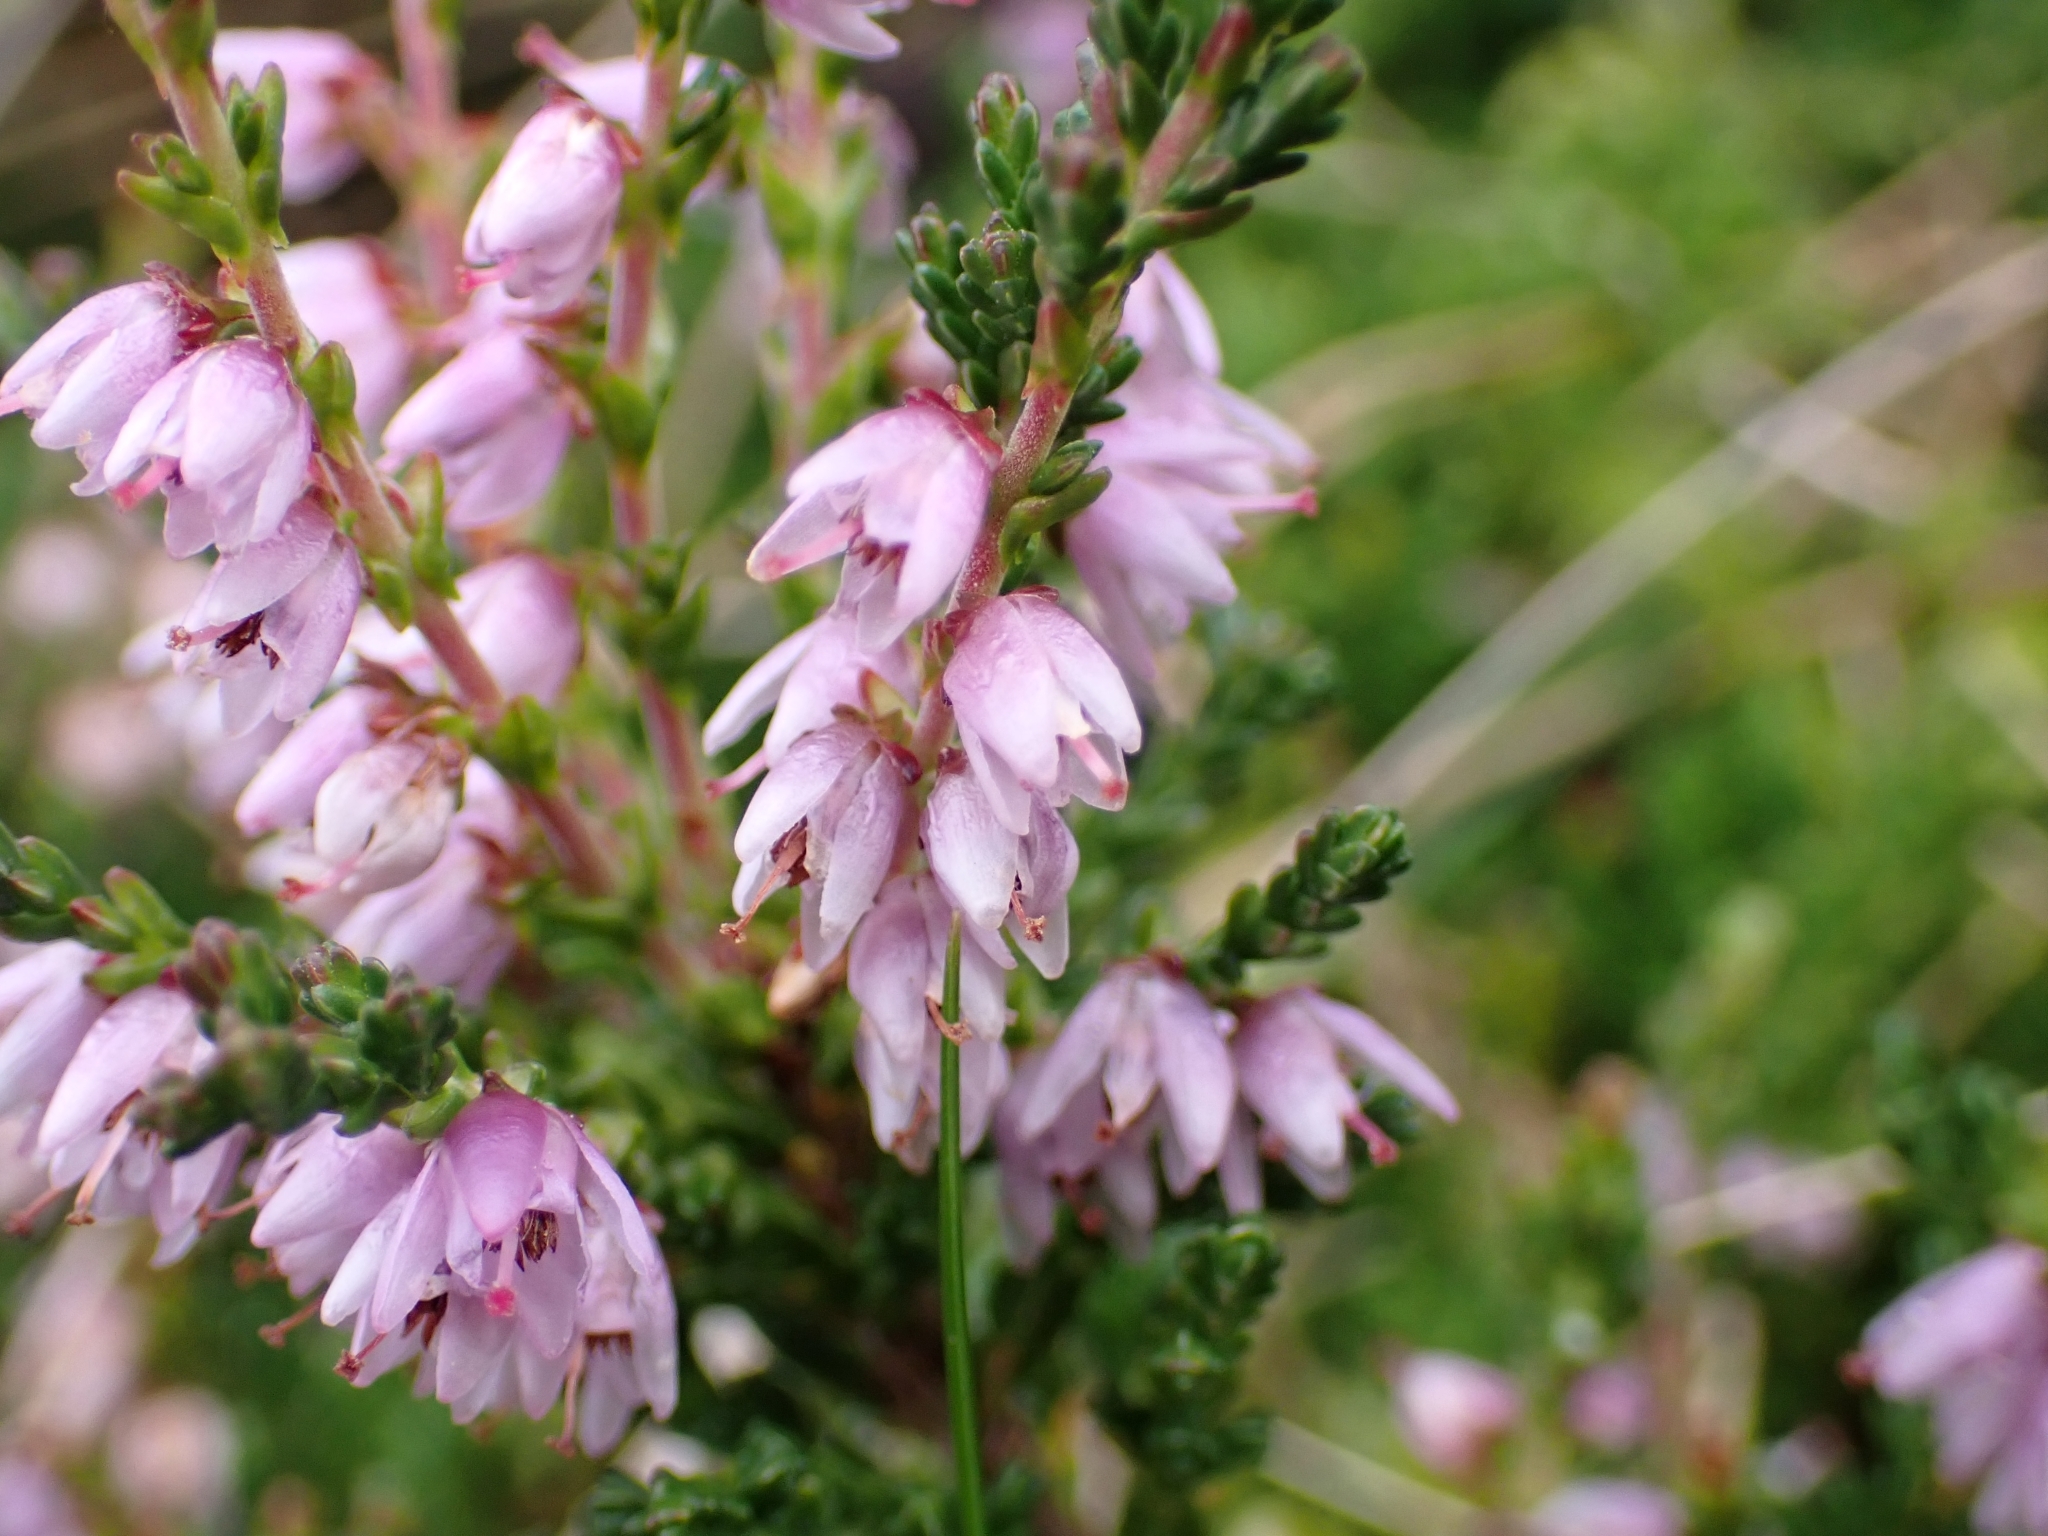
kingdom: Plantae
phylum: Tracheophyta
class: Magnoliopsida
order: Ericales
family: Ericaceae
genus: Calluna
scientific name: Calluna vulgaris
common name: Heather
